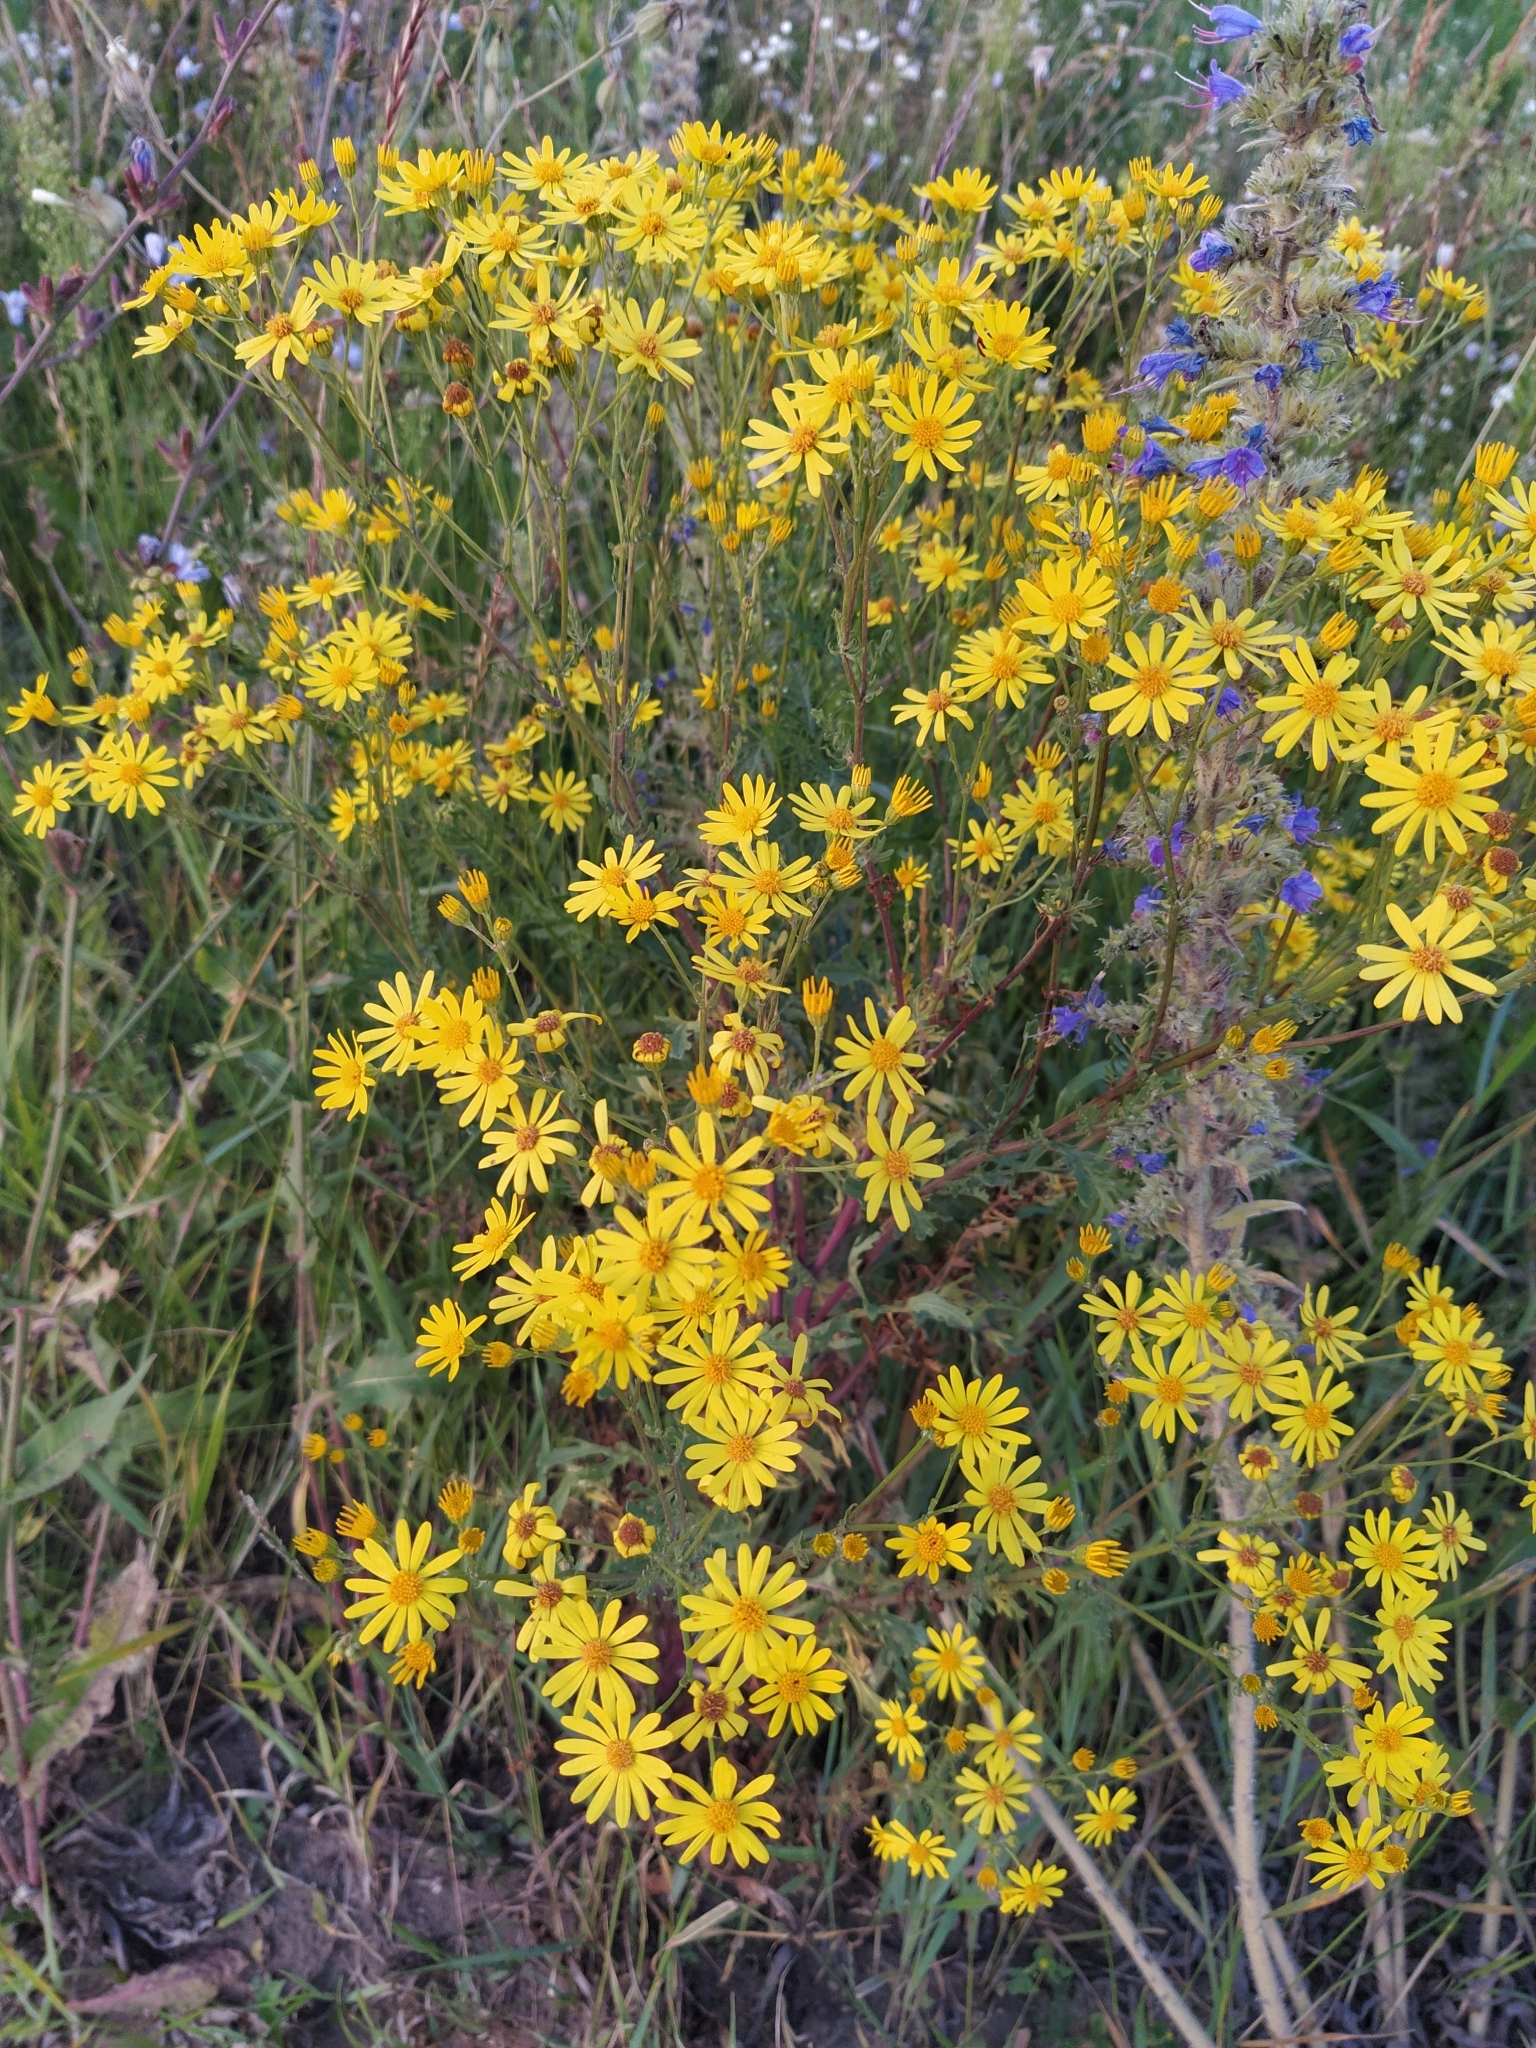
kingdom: Plantae
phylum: Tracheophyta
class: Magnoliopsida
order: Asterales
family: Asteraceae
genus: Jacobaea
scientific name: Jacobaea vulgaris
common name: Stinking willie
